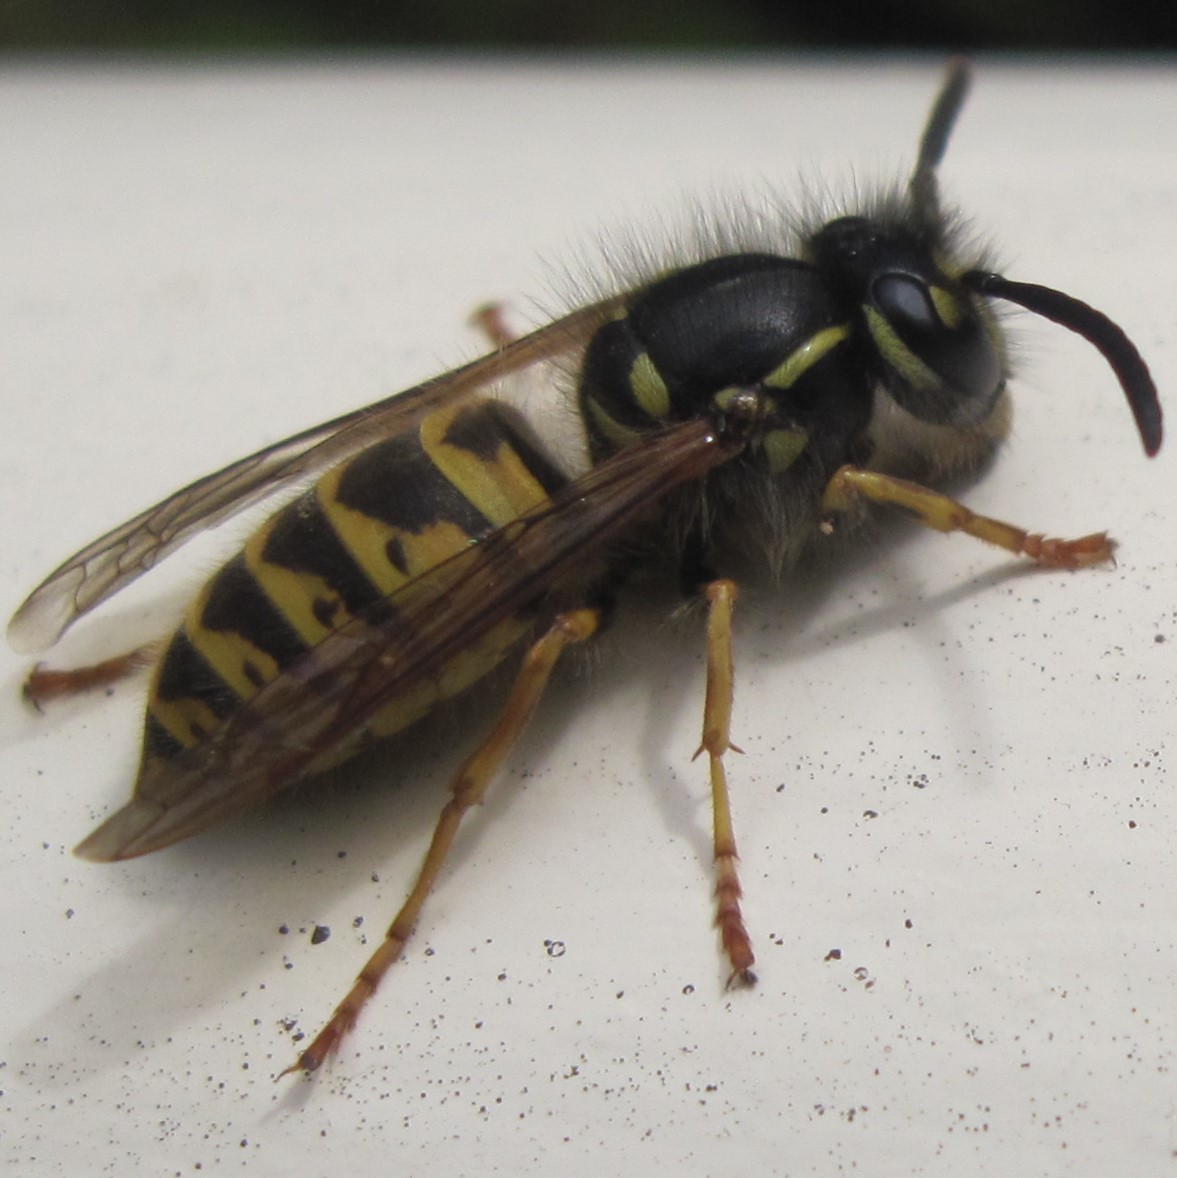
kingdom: Animalia
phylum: Arthropoda
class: Insecta
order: Hymenoptera
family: Vespidae
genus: Vespula
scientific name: Vespula vulgaris
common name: Common wasp
